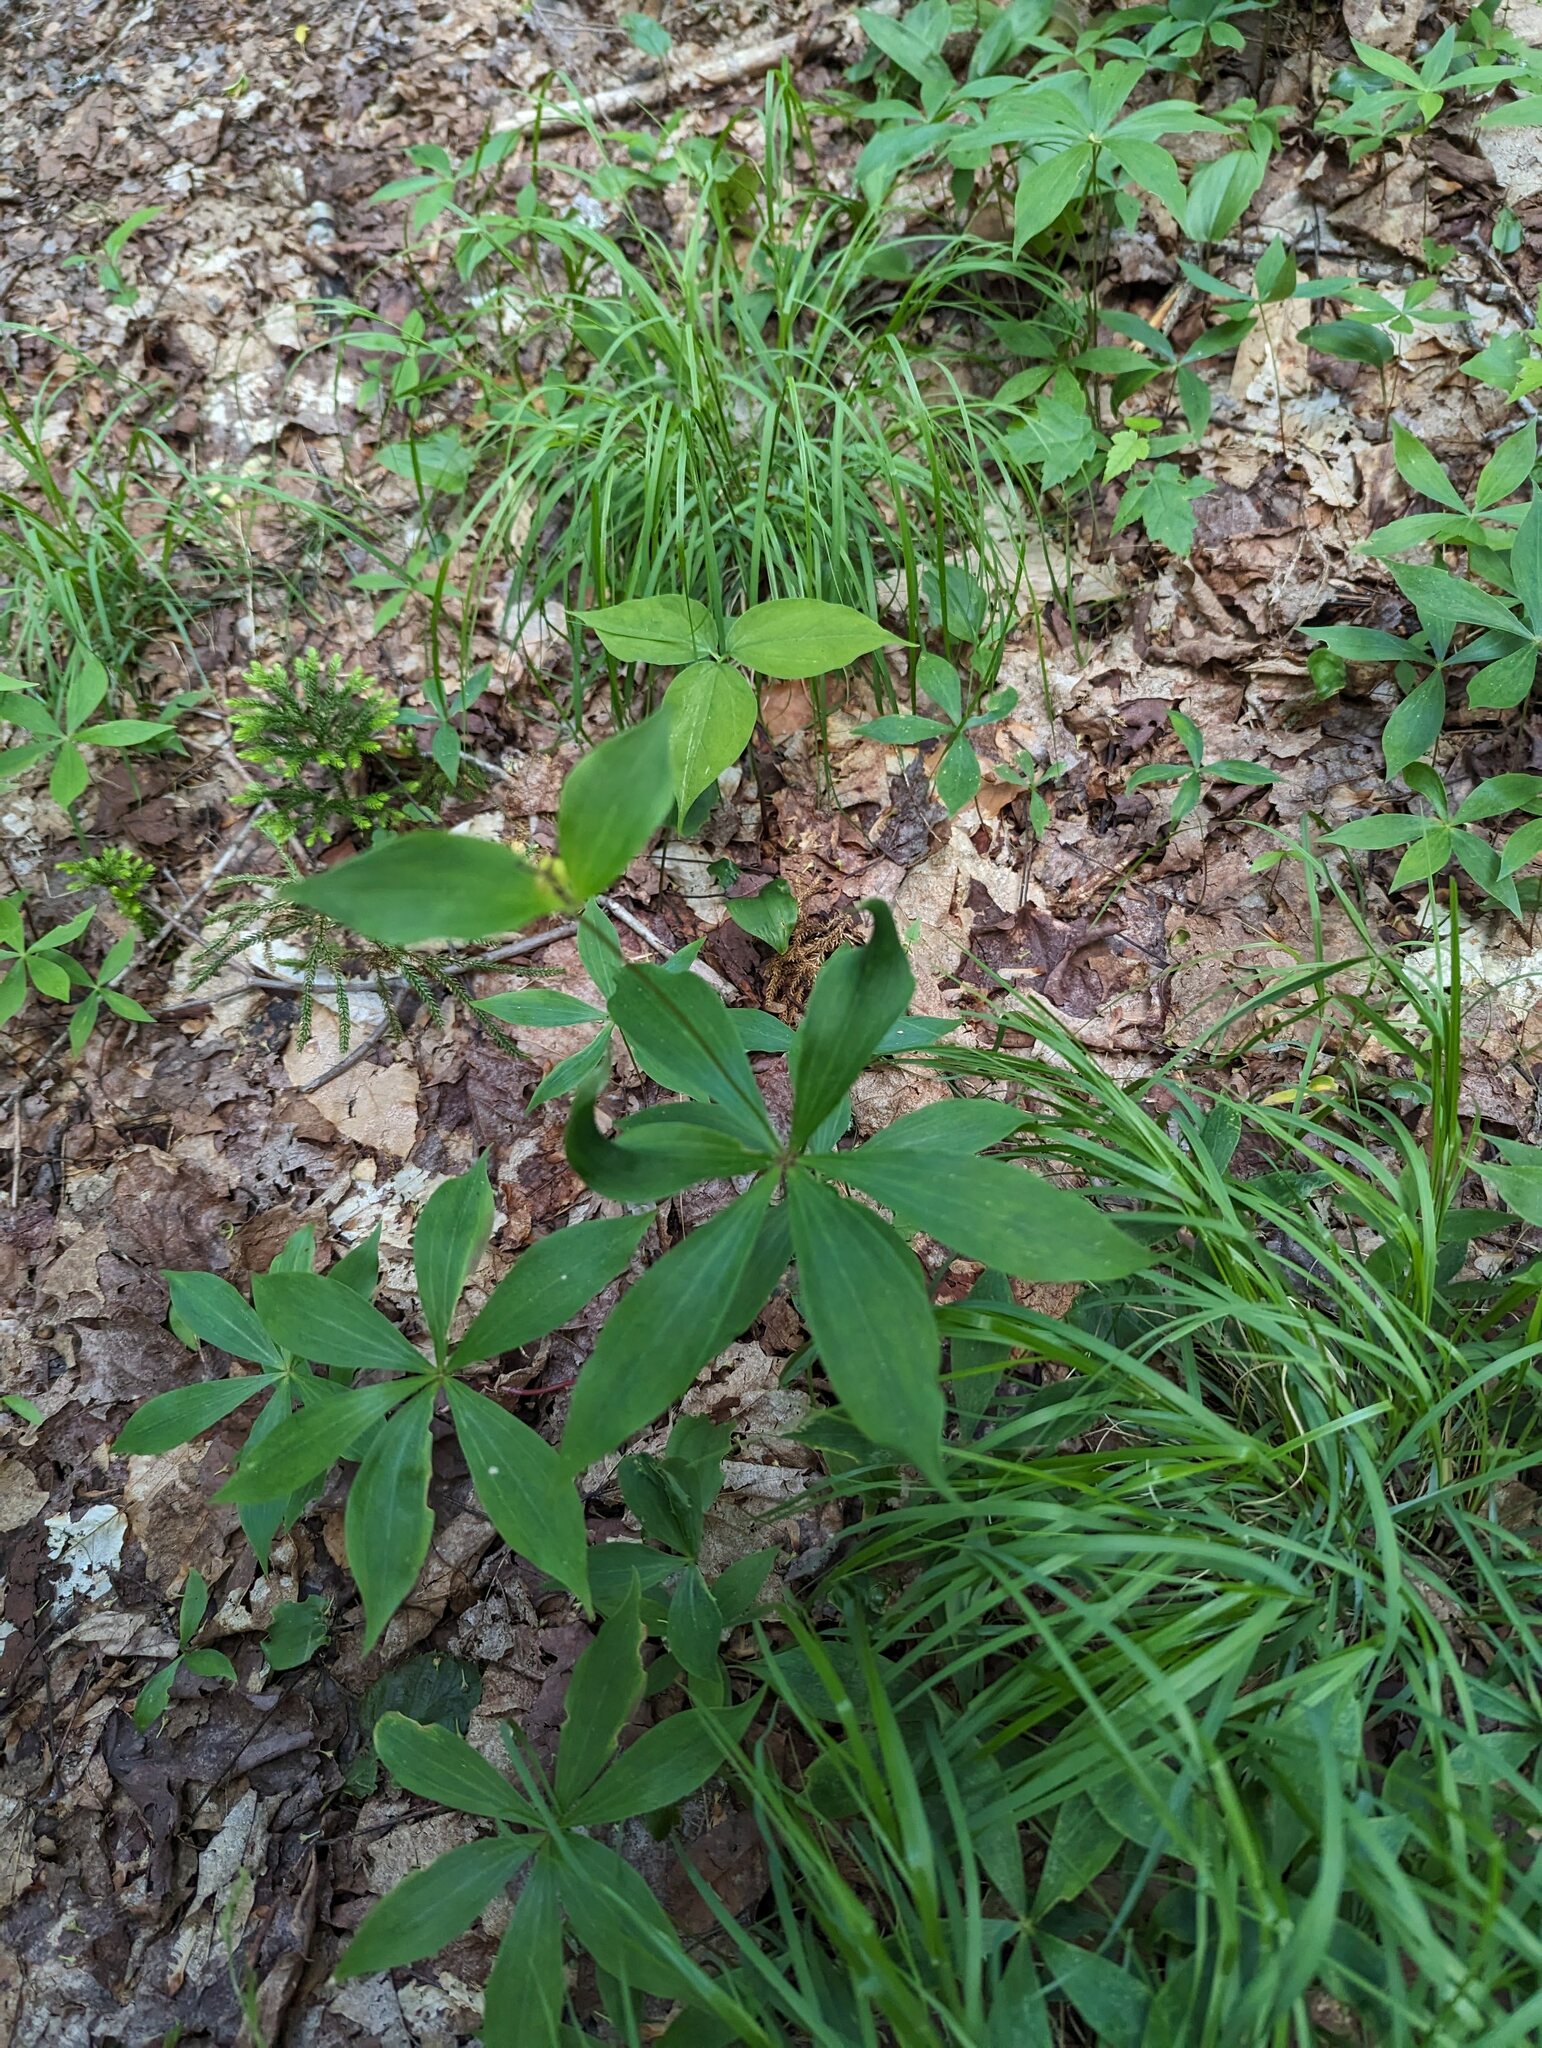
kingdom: Plantae
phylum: Tracheophyta
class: Liliopsida
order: Liliales
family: Liliaceae
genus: Medeola
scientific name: Medeola virginiana
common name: Indian cucumber-root
